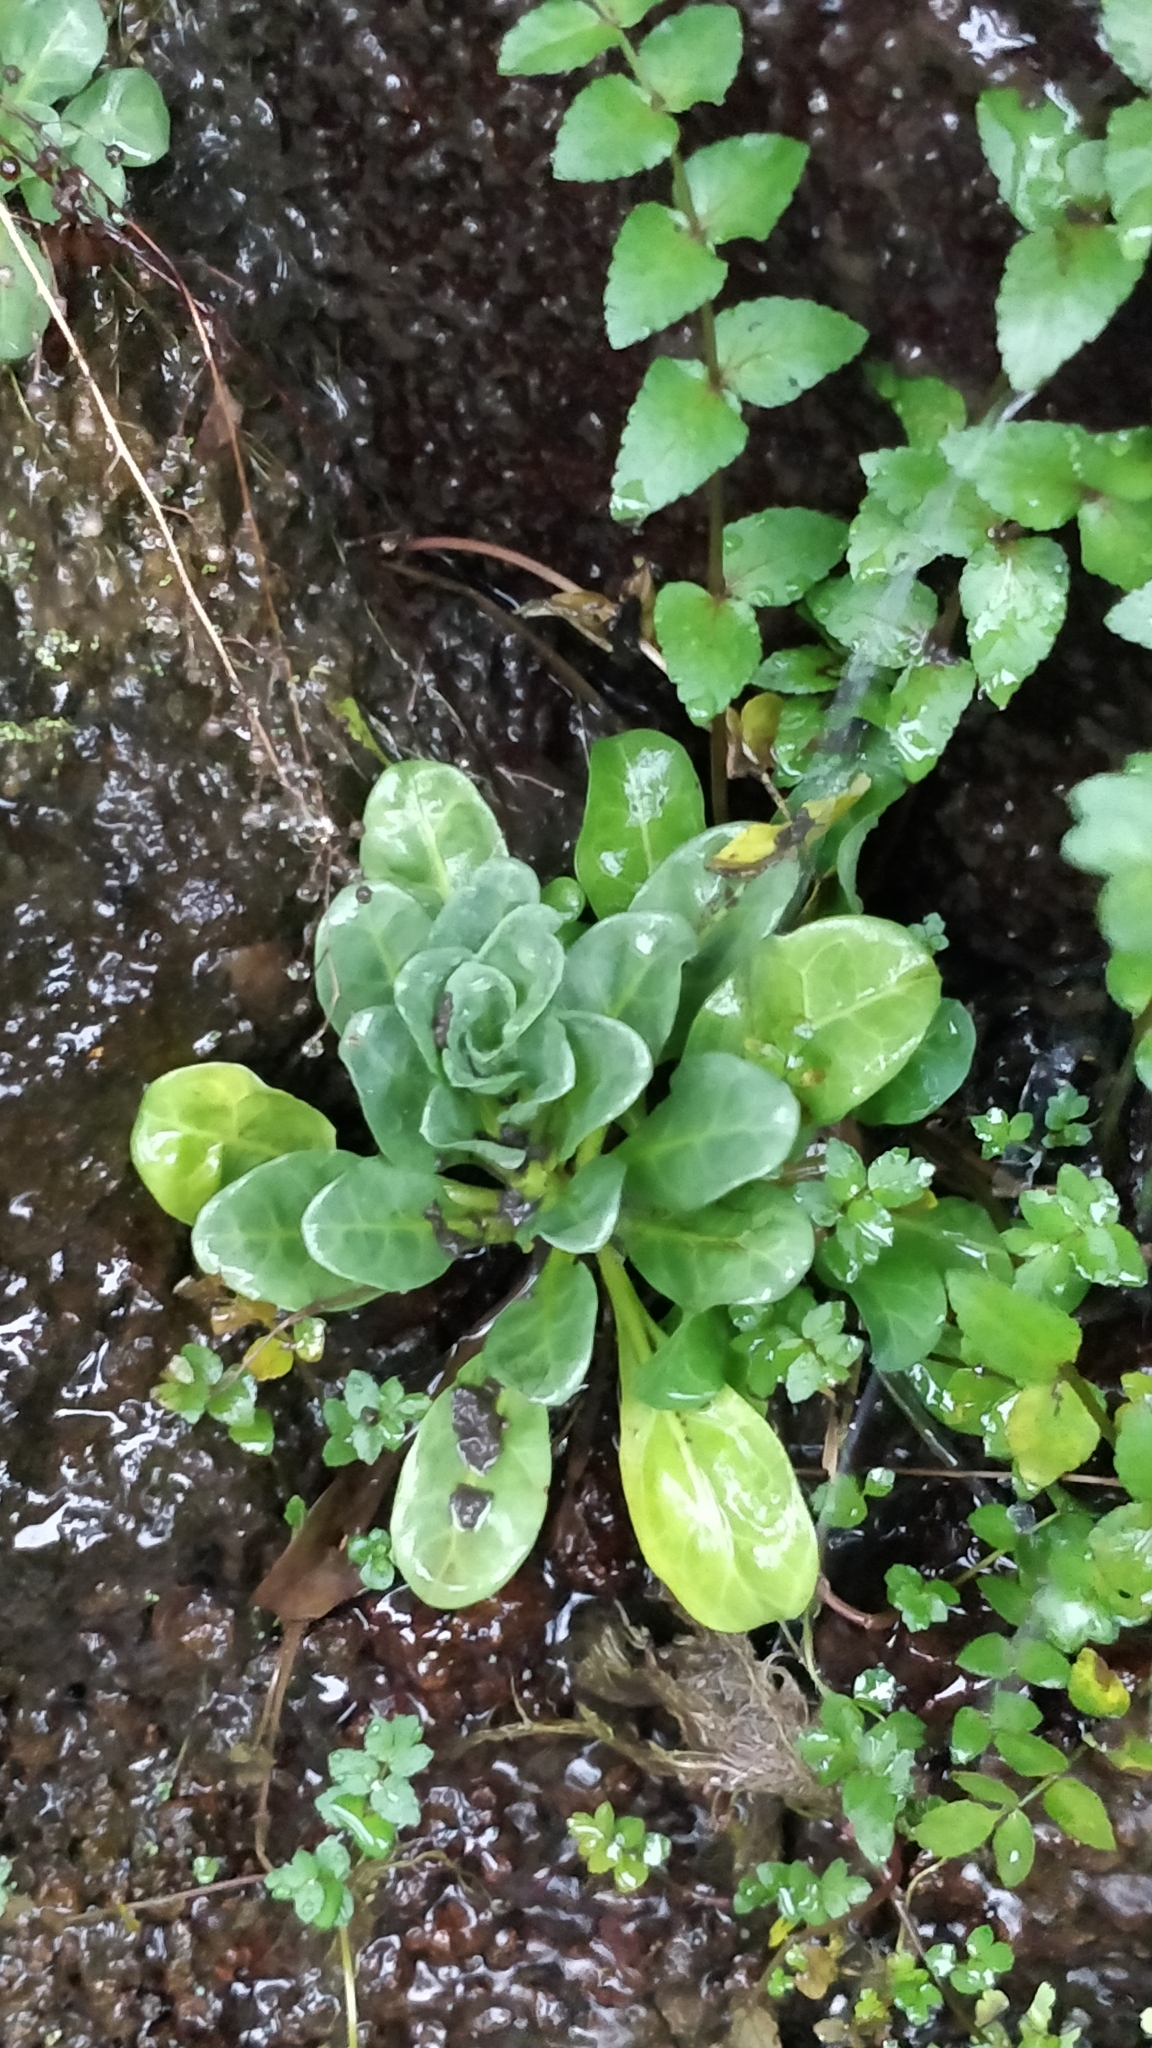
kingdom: Plantae
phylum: Tracheophyta
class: Magnoliopsida
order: Ericales
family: Primulaceae
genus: Samolus
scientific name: Samolus valerandi
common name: Brookweed
